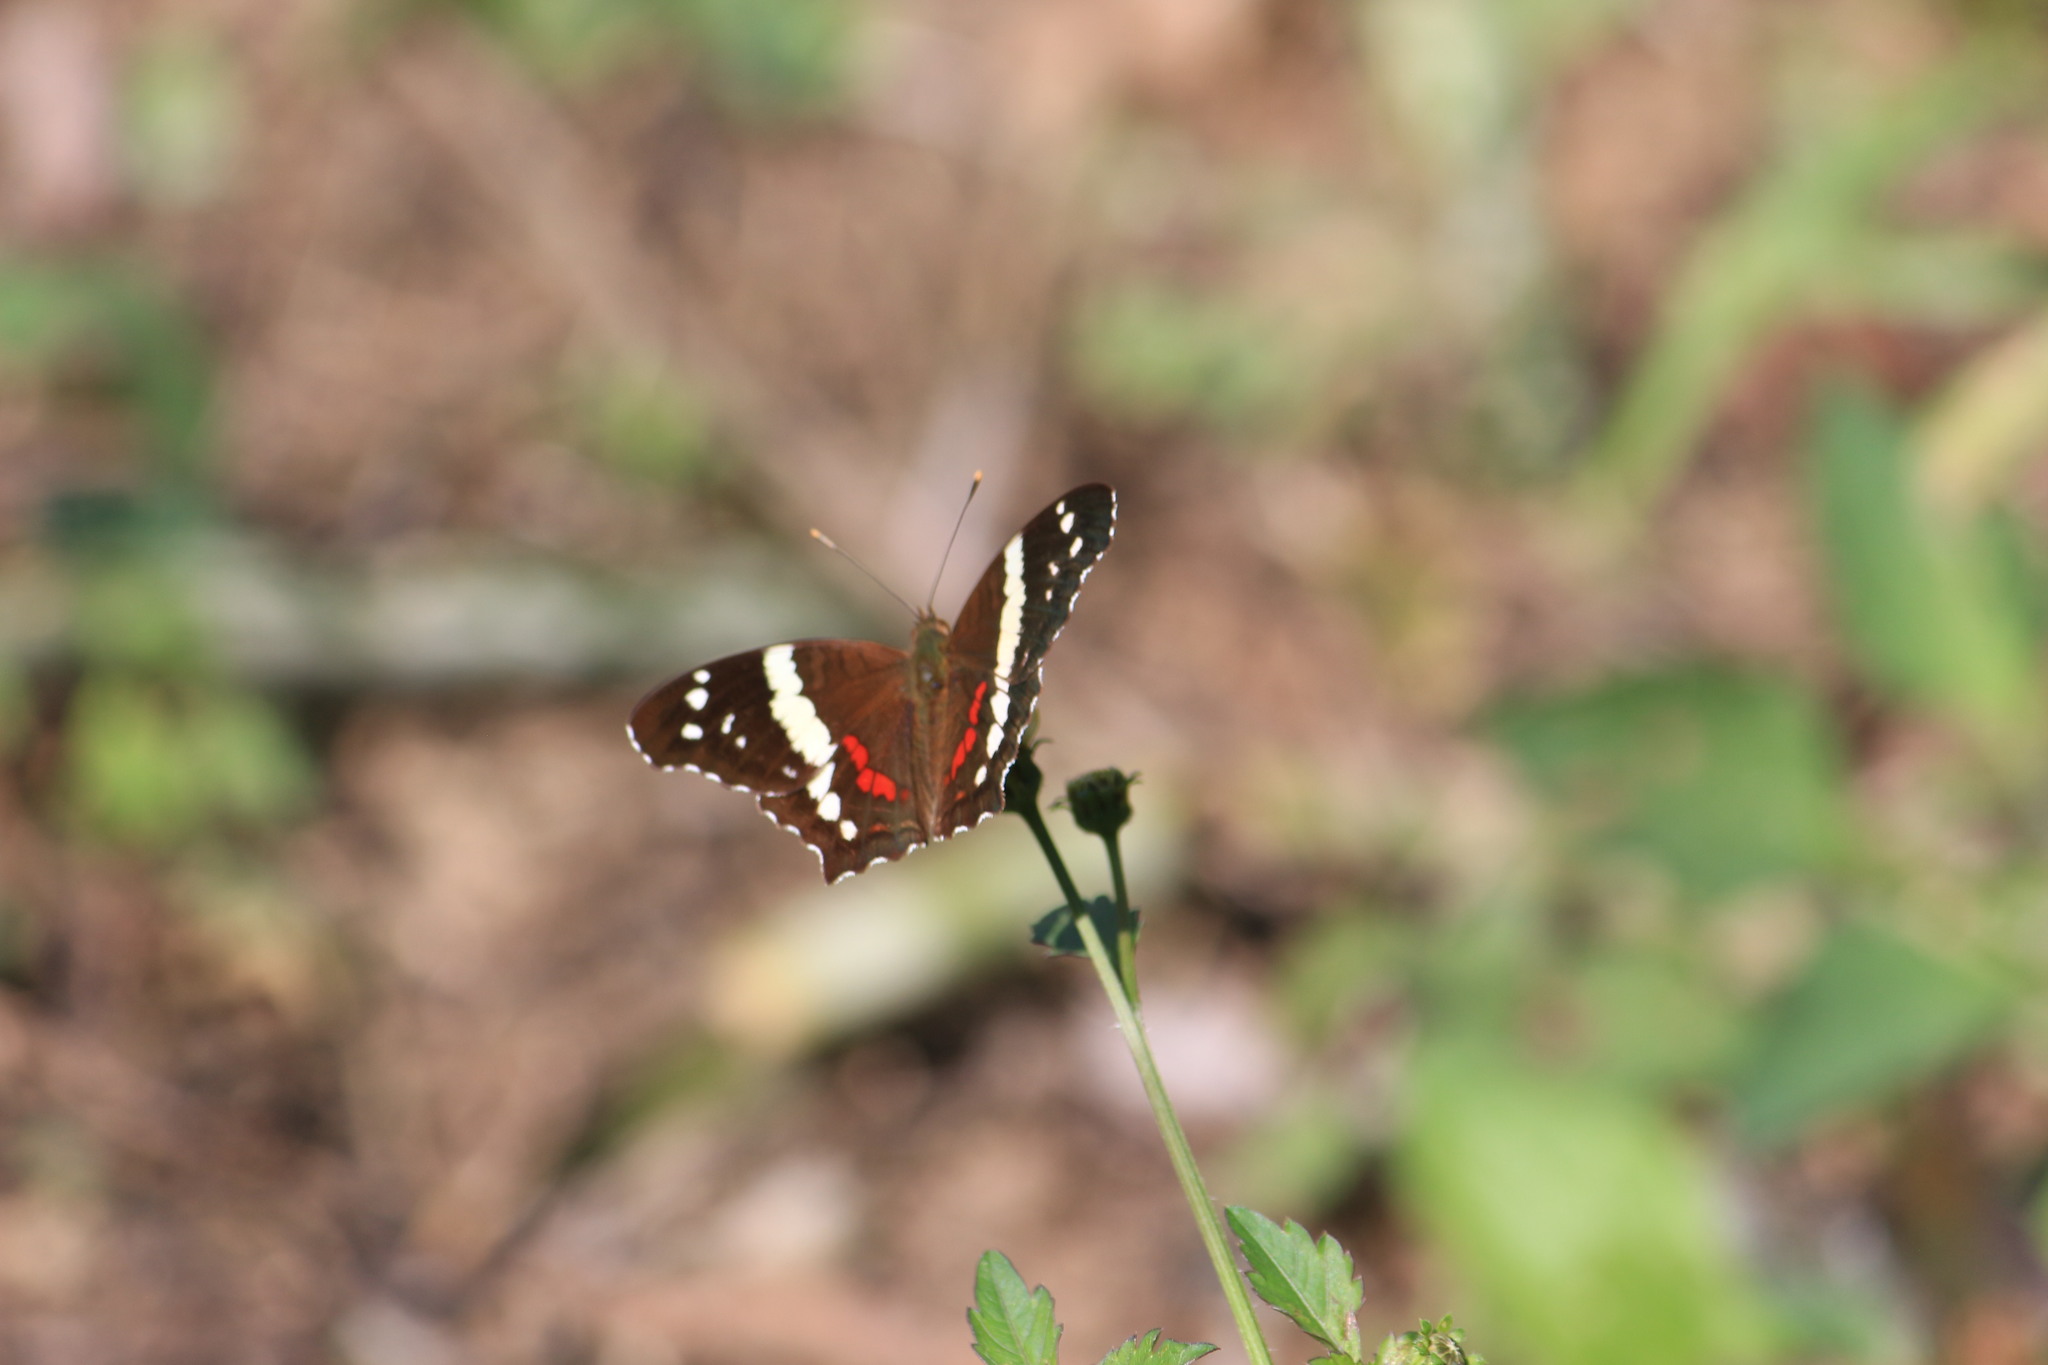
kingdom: Animalia
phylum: Arthropoda
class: Insecta
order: Lepidoptera
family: Nymphalidae
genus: Anartia
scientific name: Anartia fatima
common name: Banded peacock
